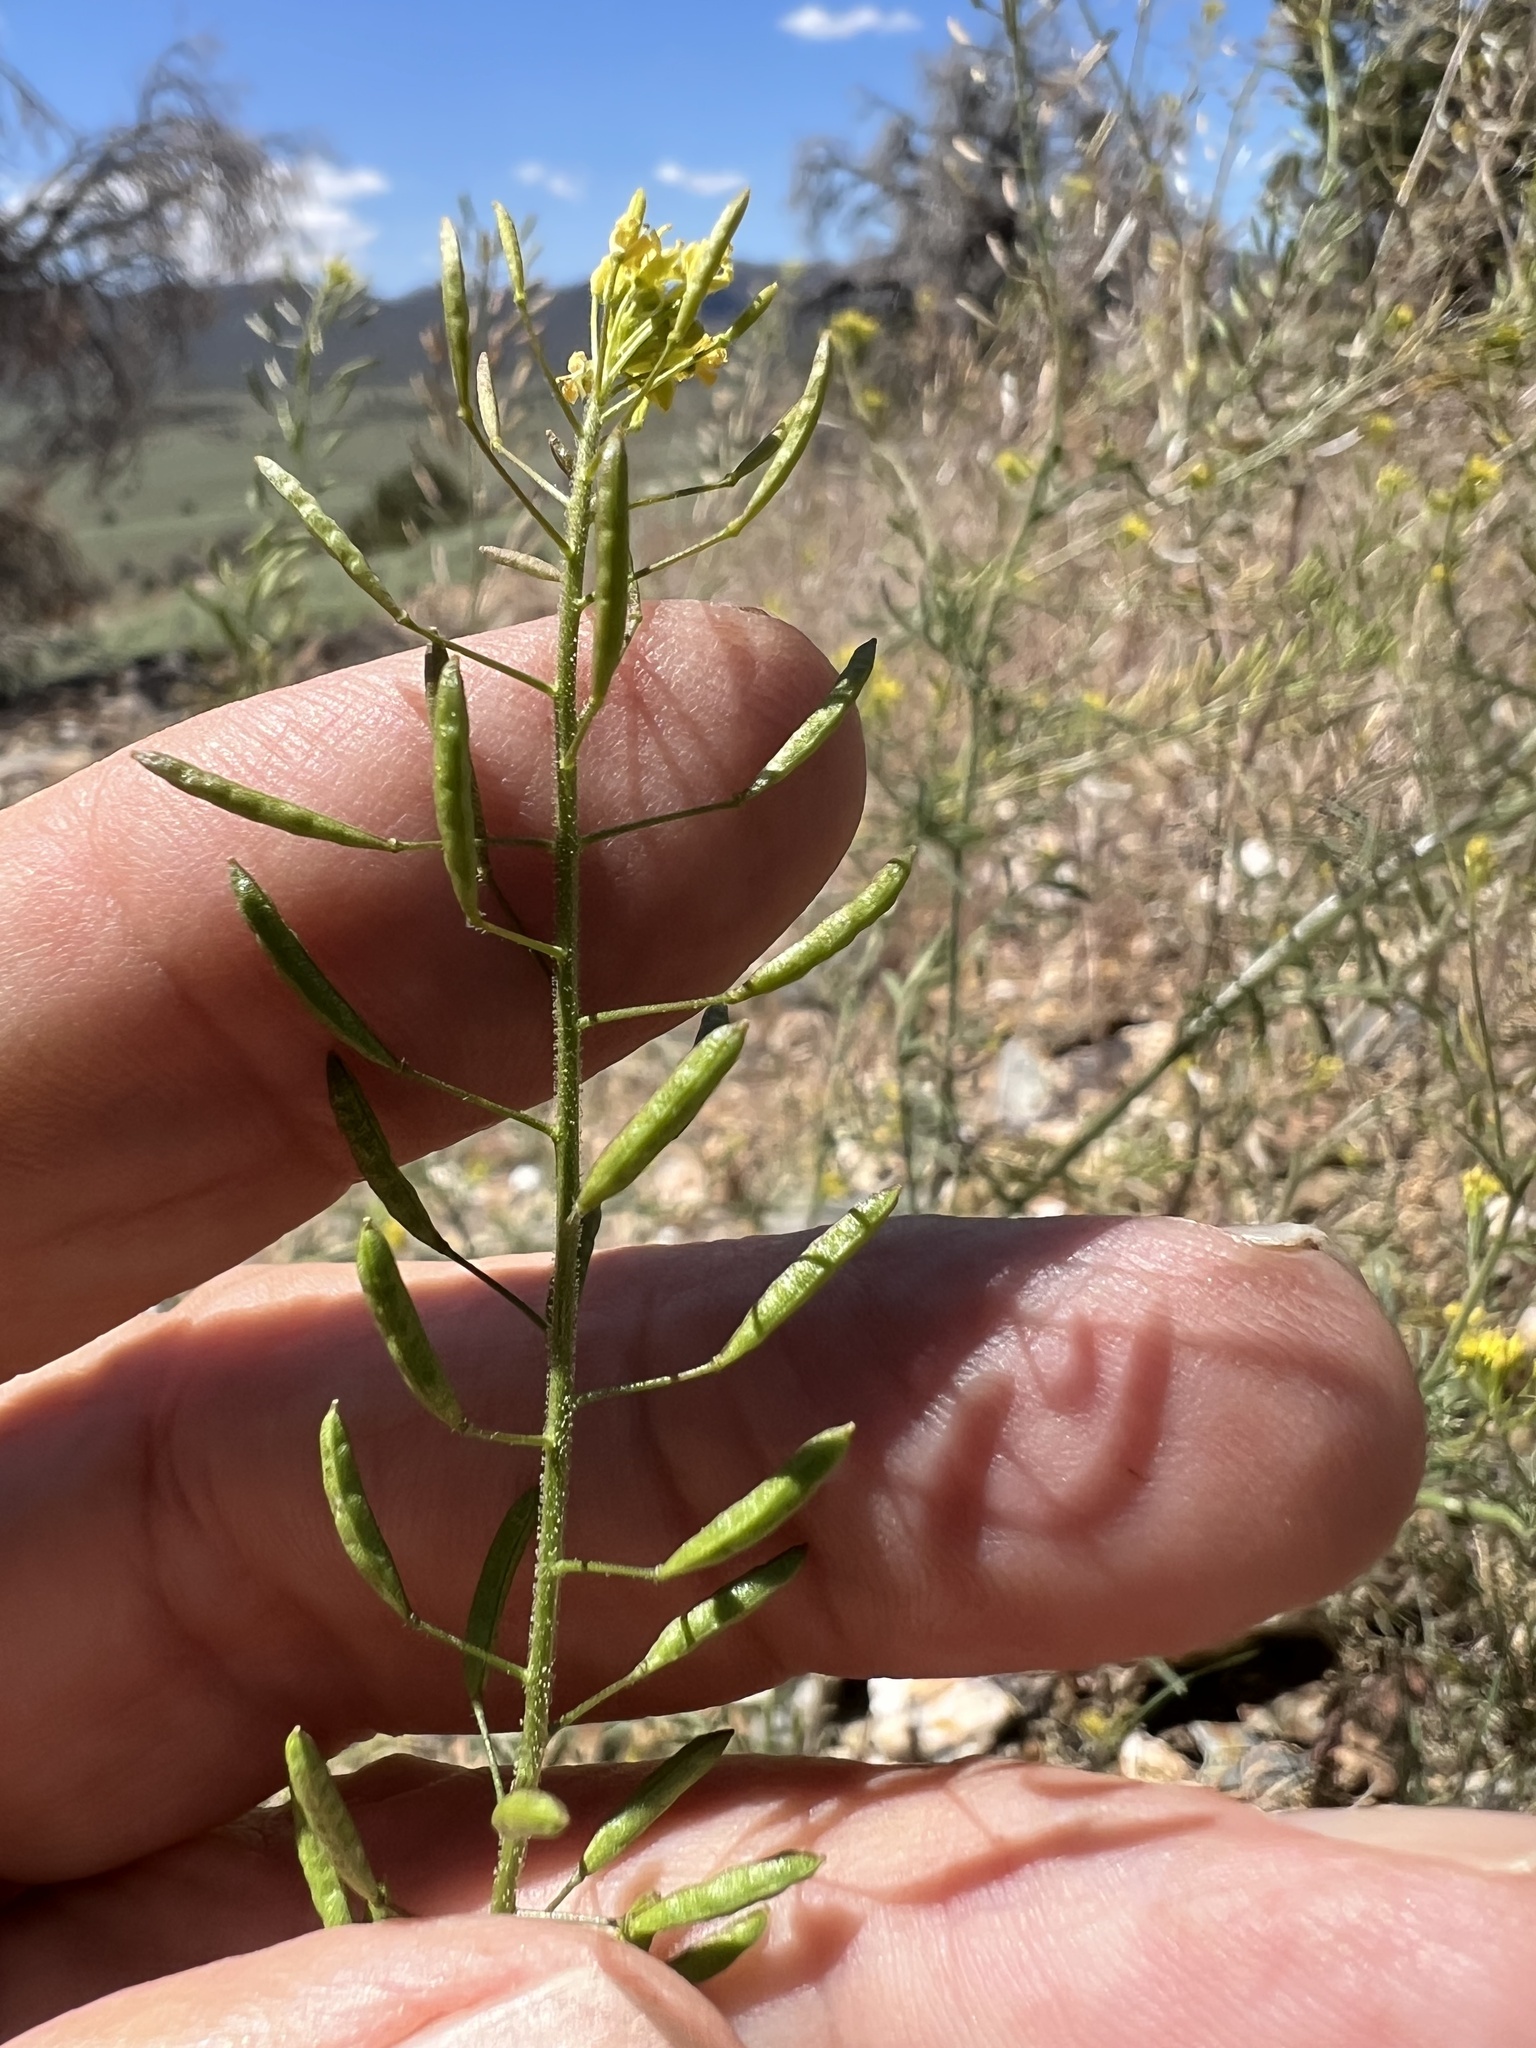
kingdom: Plantae
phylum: Tracheophyta
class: Magnoliopsida
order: Brassicales
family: Brassicaceae
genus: Descurainia
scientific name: Descurainia pinnata
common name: Western tansy mustard
